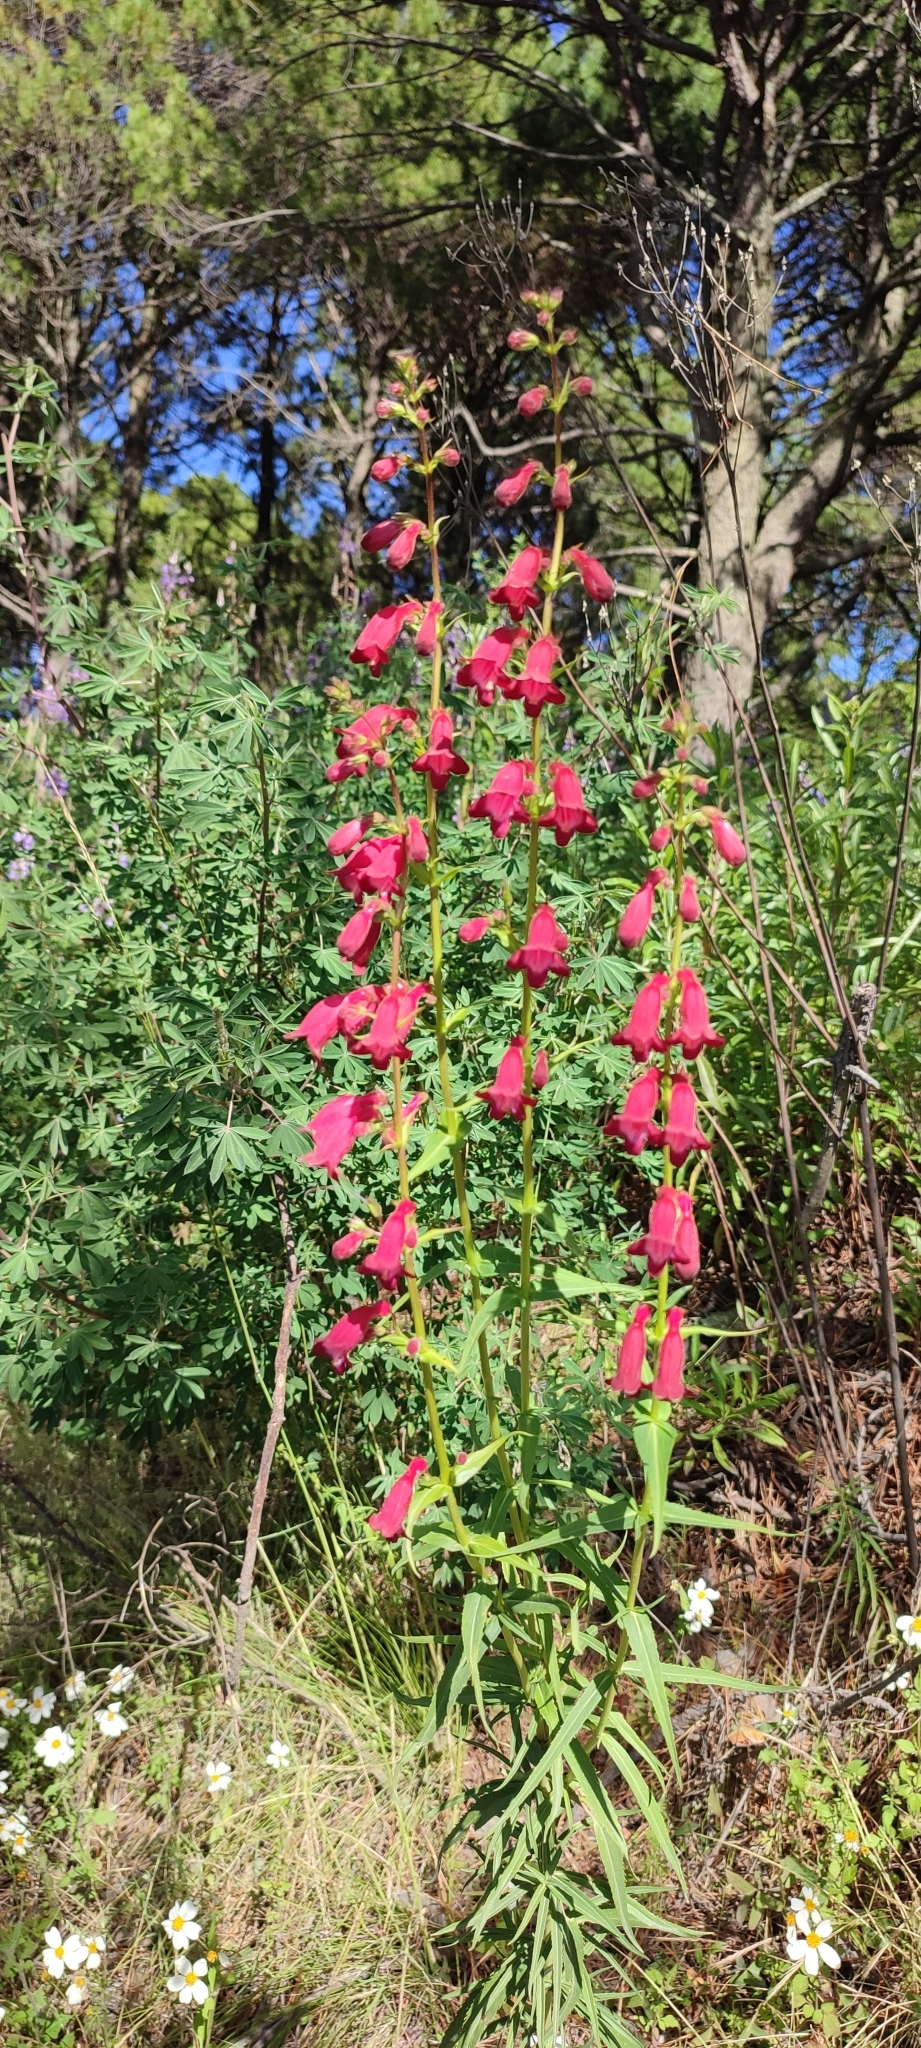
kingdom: Plantae
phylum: Tracheophyta
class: Magnoliopsida
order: Lamiales
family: Plantaginaceae
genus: Penstemon
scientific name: Penstemon roseus
